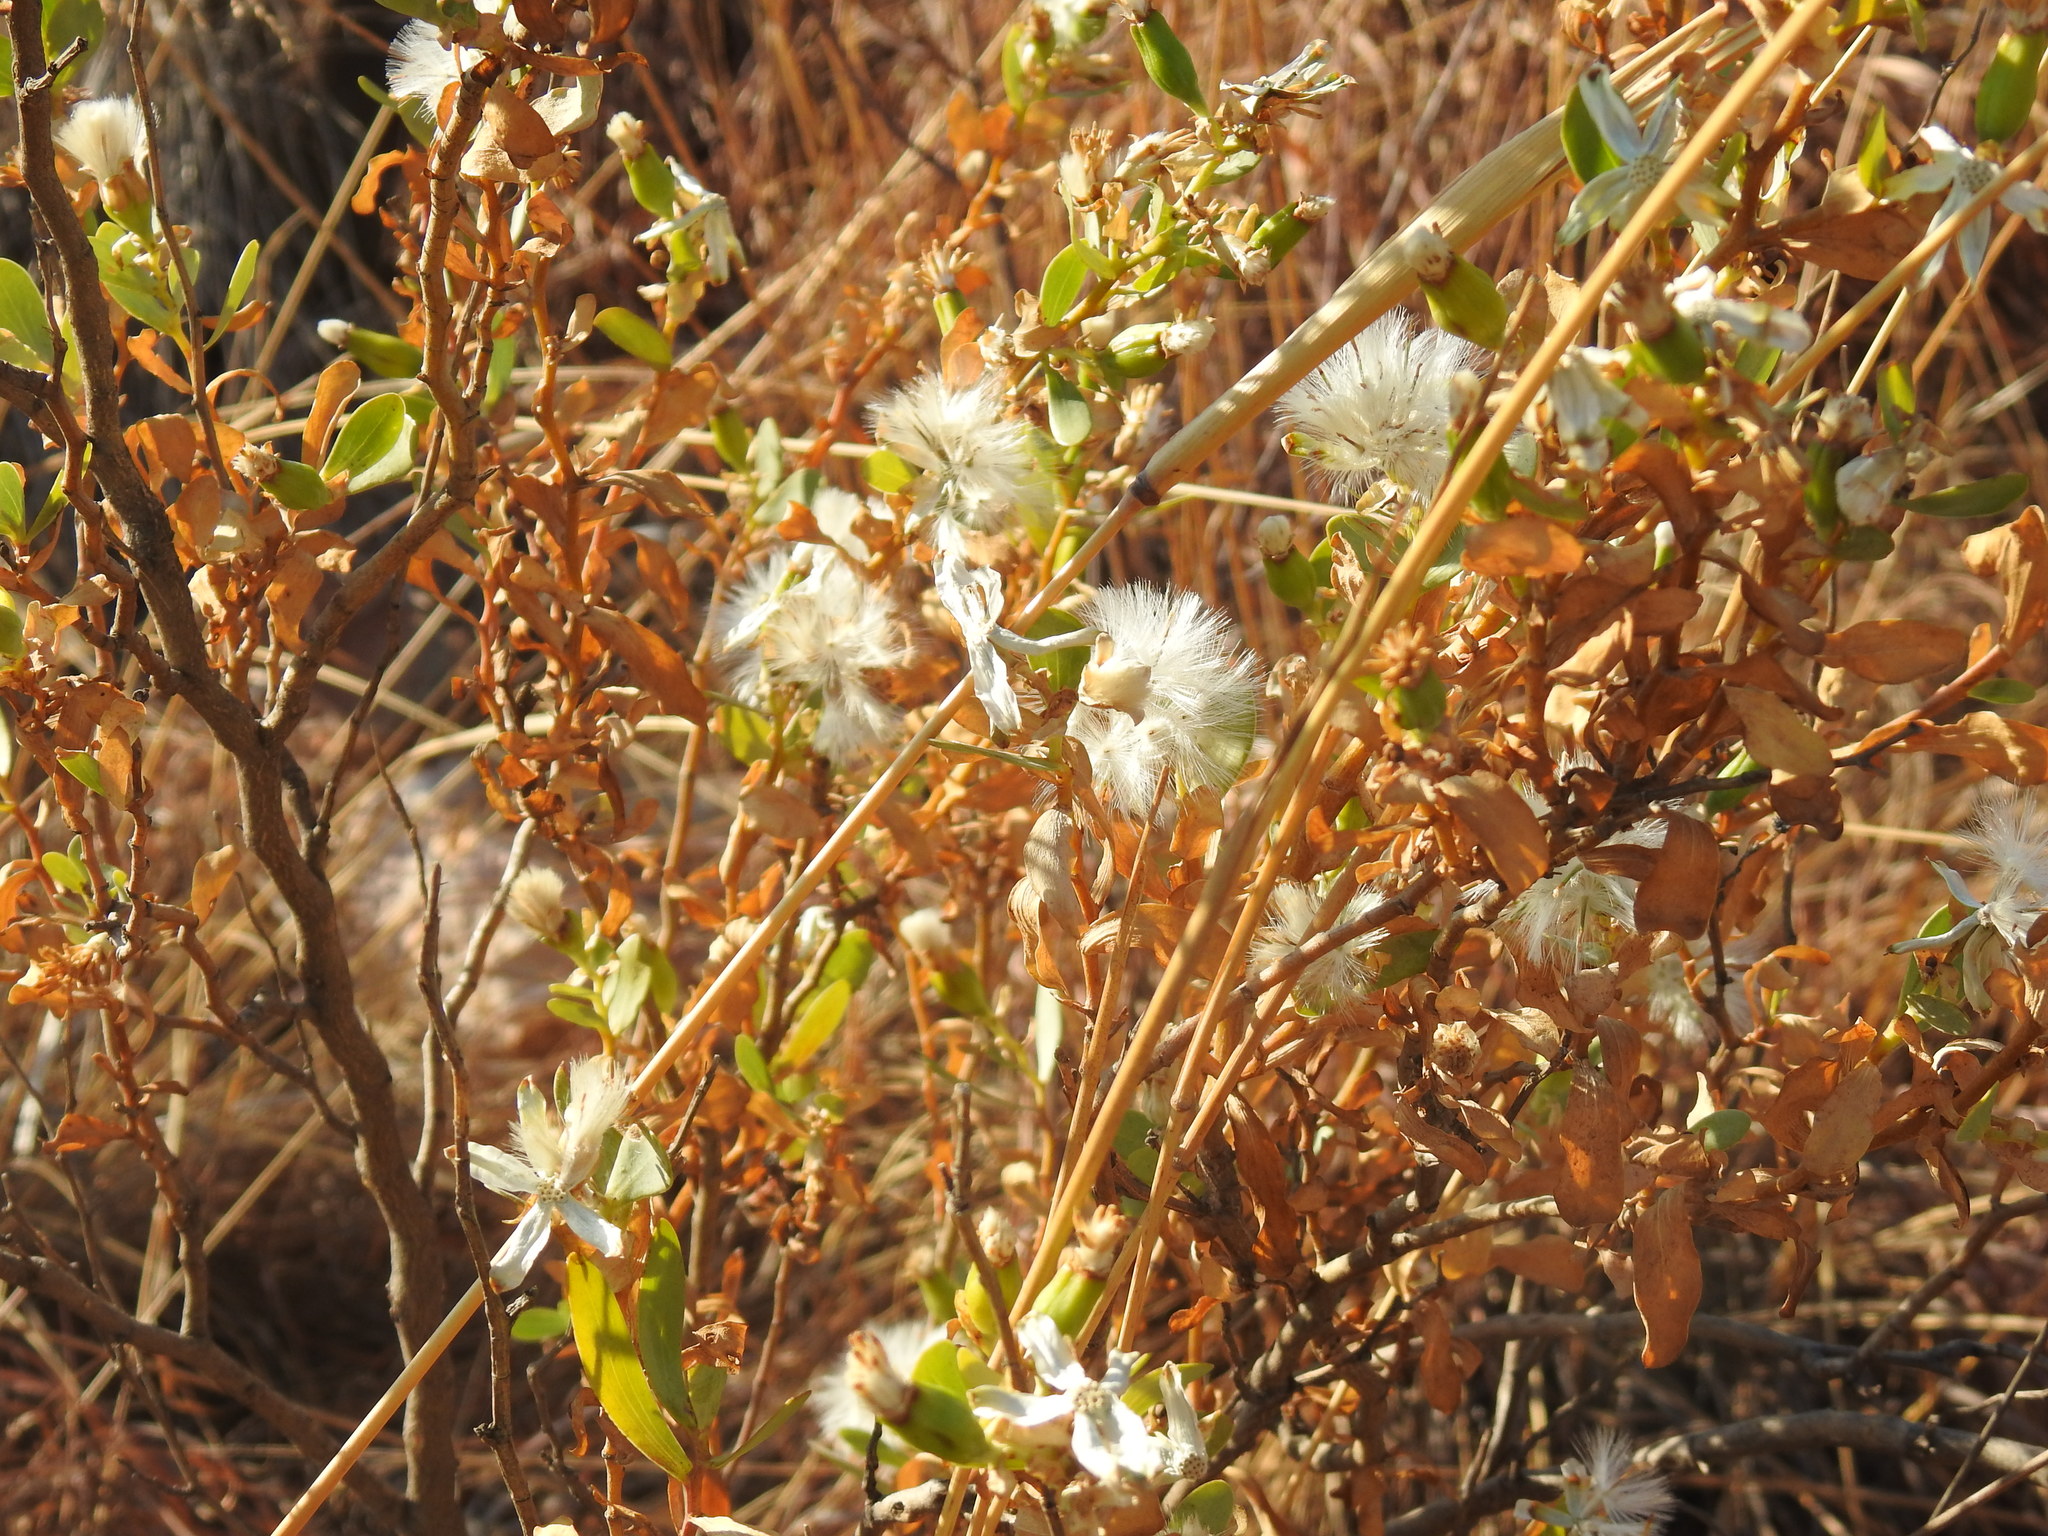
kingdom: Plantae
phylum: Tracheophyta
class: Magnoliopsida
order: Asterales
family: Asteraceae
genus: Lopholaena
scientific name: Lopholaena coriifolia
